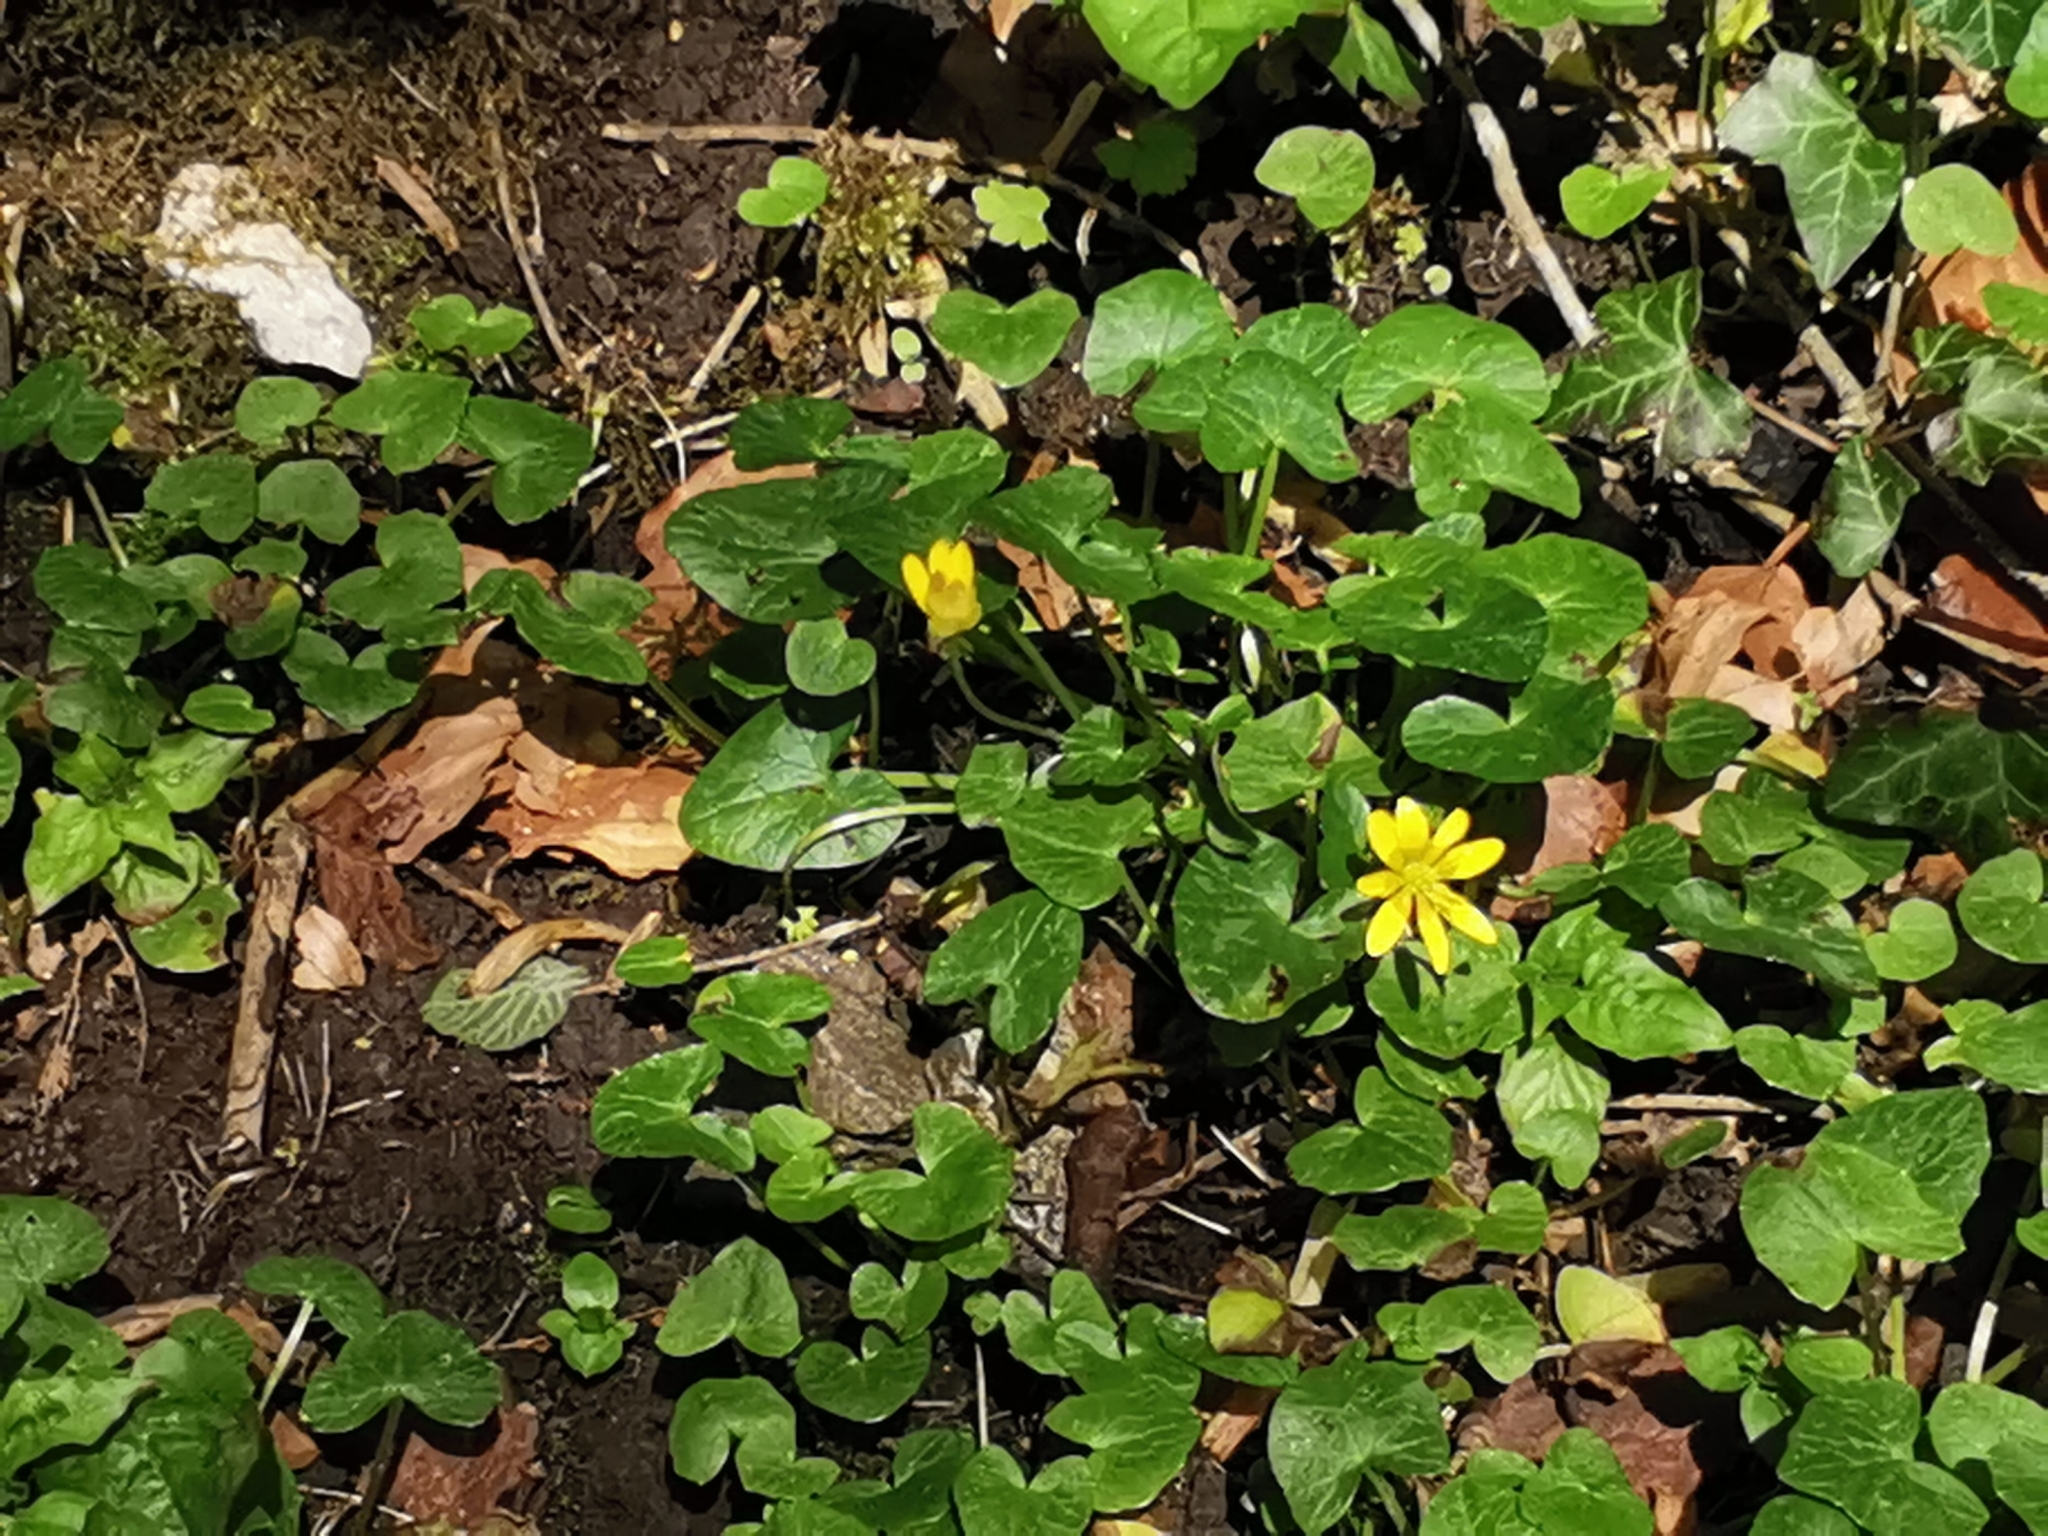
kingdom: Plantae
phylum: Tracheophyta
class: Magnoliopsida
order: Ranunculales
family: Ranunculaceae
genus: Ficaria
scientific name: Ficaria verna
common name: Lesser celandine
